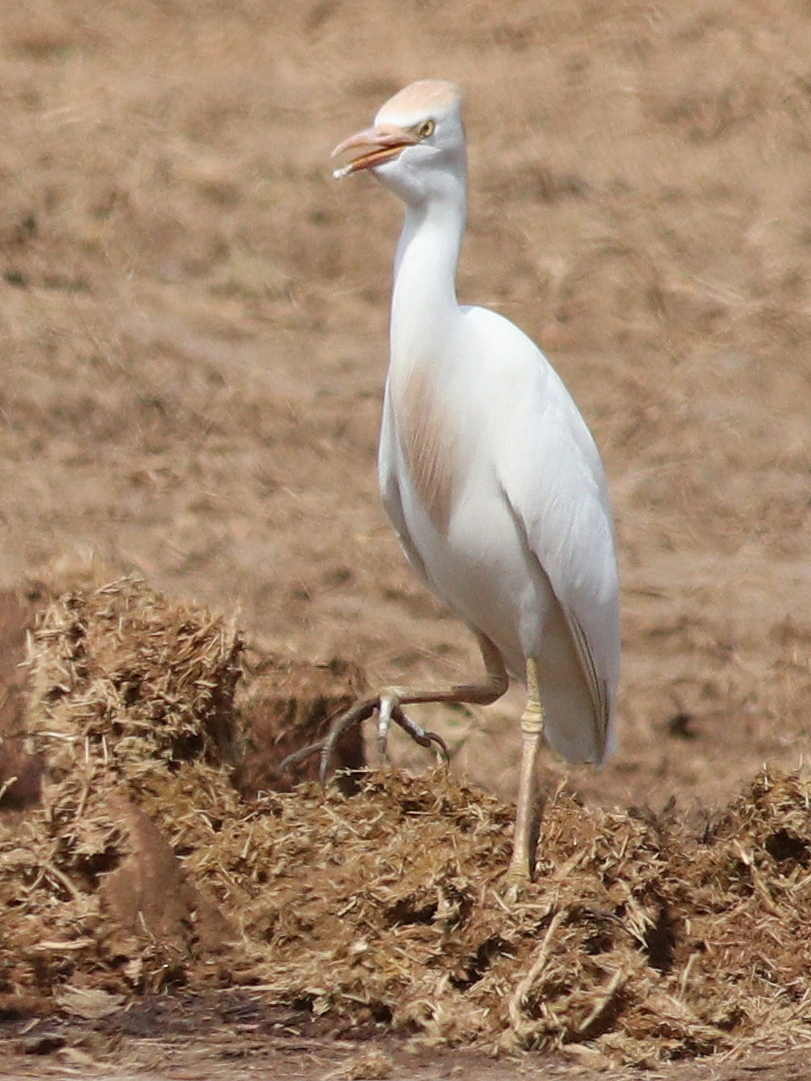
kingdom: Animalia
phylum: Chordata
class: Aves
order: Pelecaniformes
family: Ardeidae
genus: Bubulcus
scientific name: Bubulcus ibis
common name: Cattle egret
